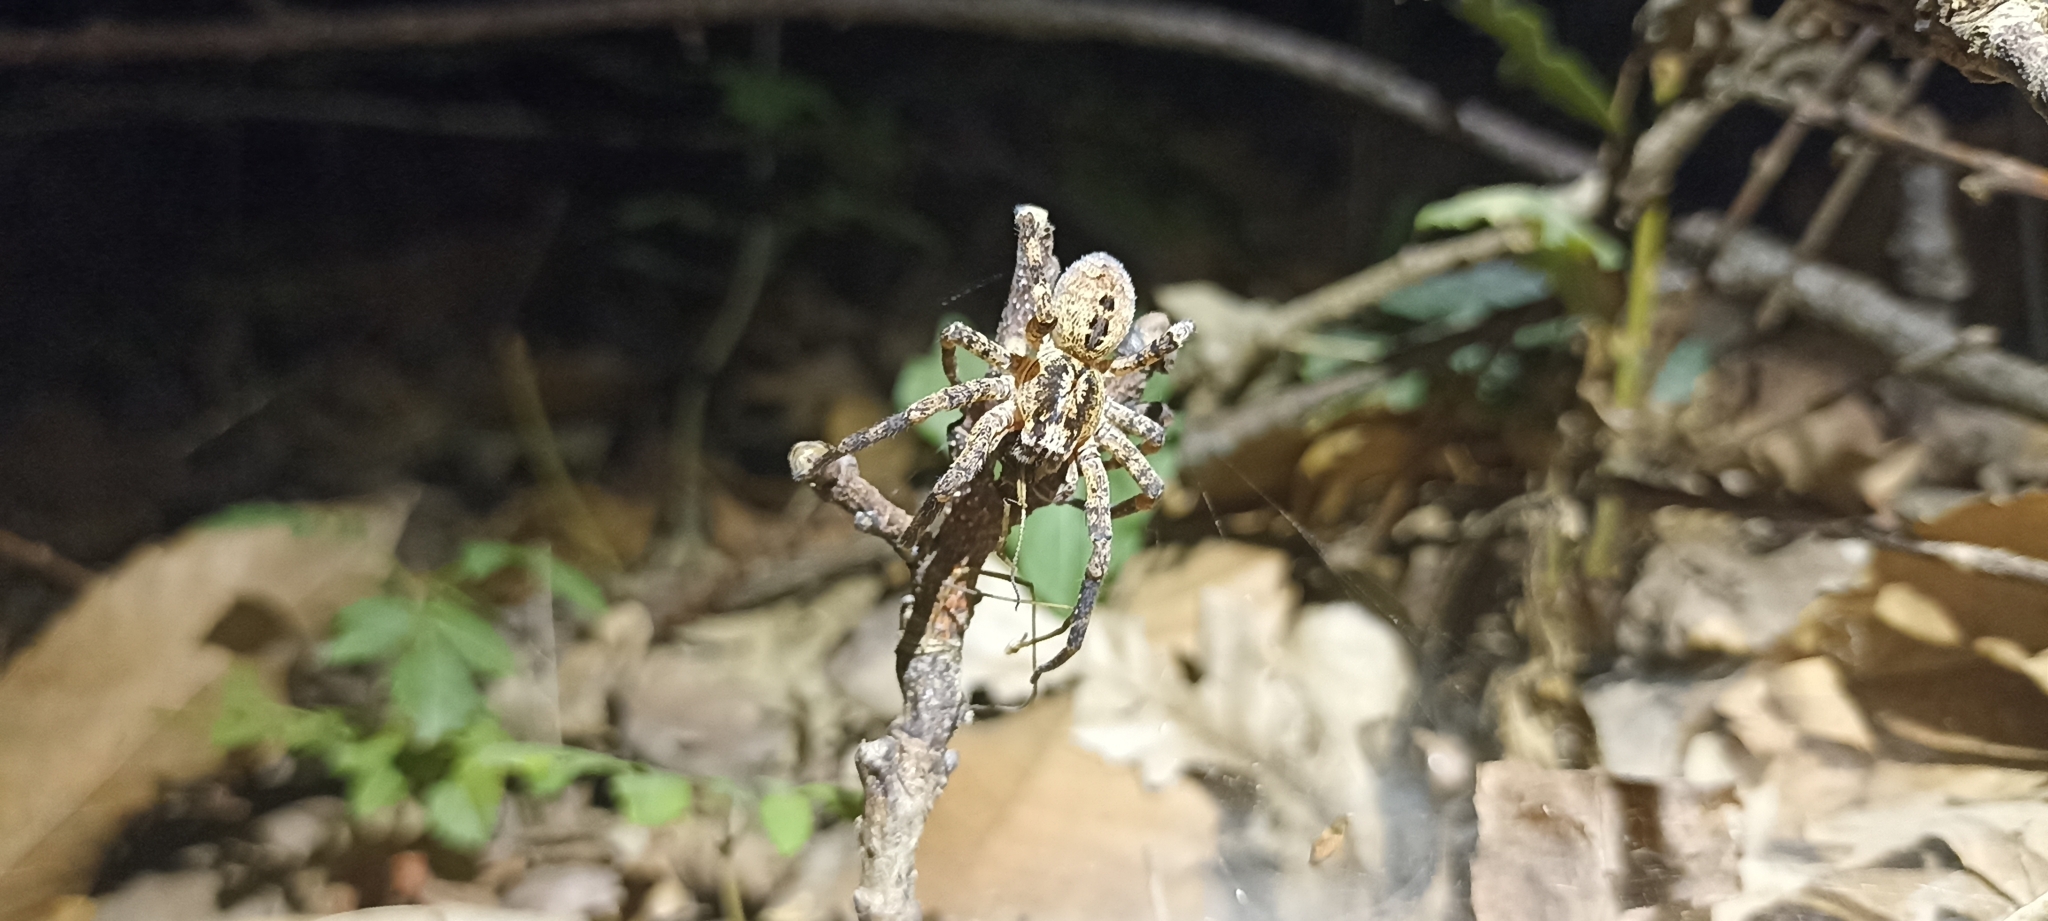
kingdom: Animalia
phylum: Arthropoda
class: Arachnida
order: Araneae
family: Zoropsidae
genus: Zoropsis
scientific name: Zoropsis spinimana
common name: Zoropsid spider
